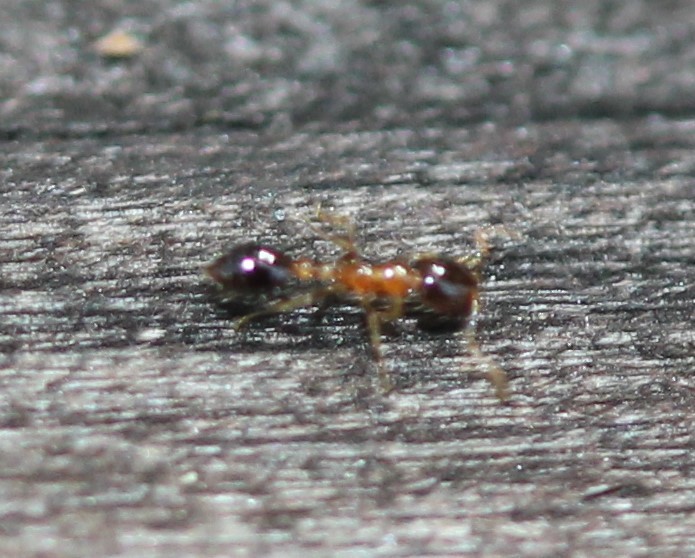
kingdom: Animalia
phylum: Arthropoda
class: Insecta
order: Hymenoptera
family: Formicidae
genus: Monomorium
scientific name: Monomorium floricola
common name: Bicolored trailing ant
